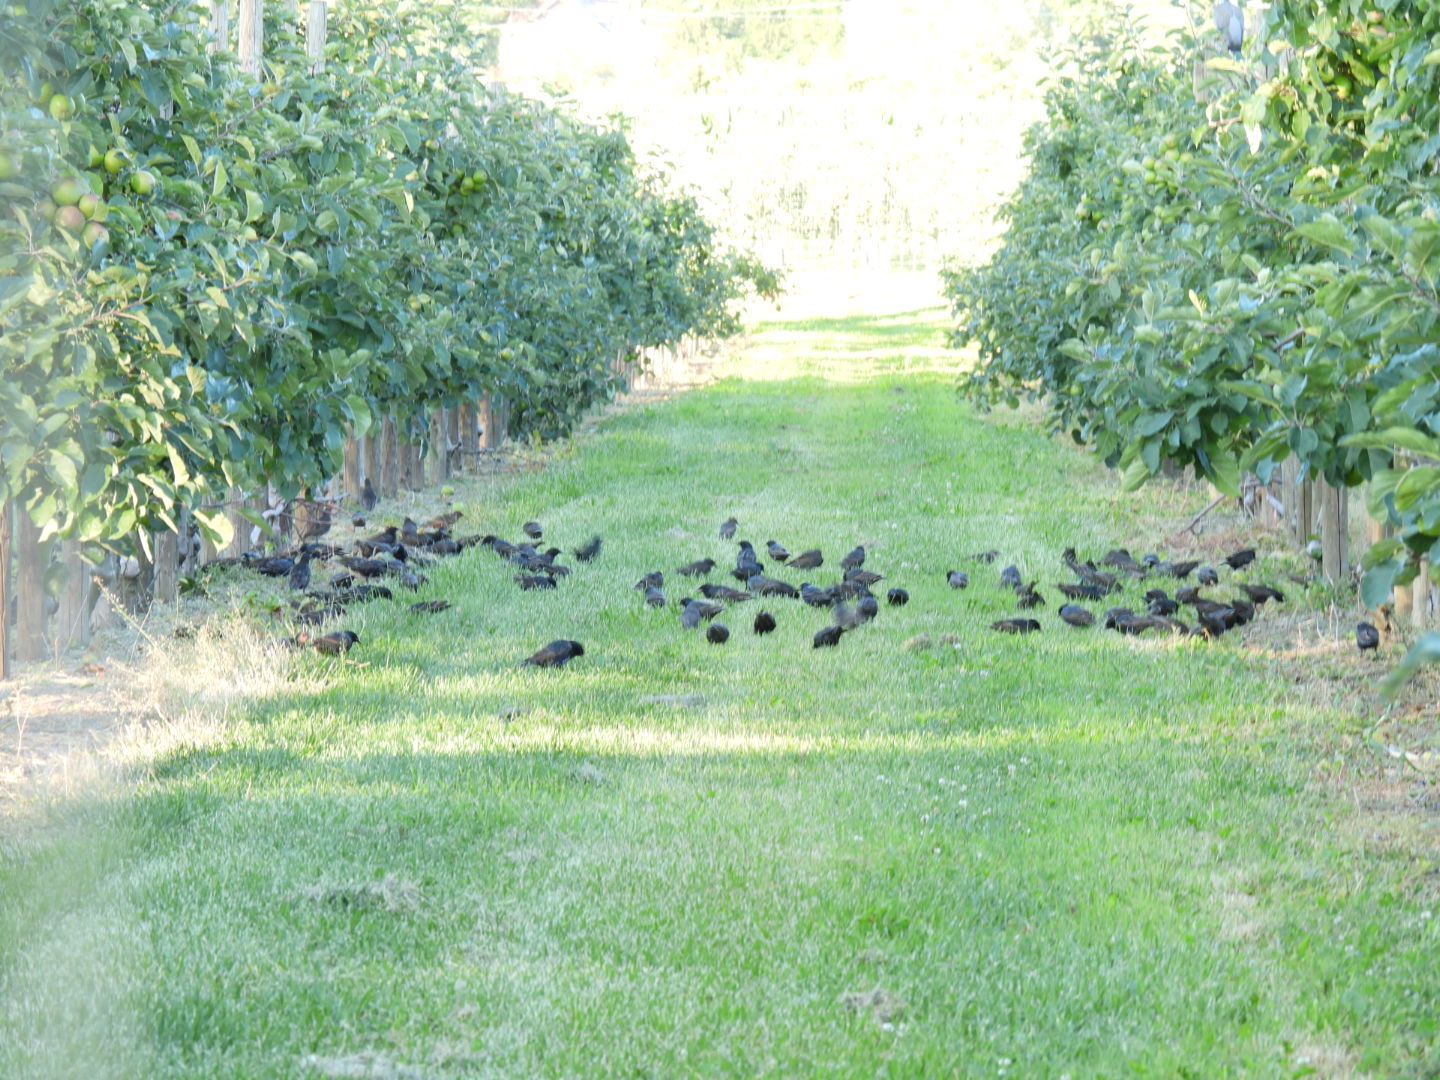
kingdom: Animalia
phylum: Chordata
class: Aves
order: Passeriformes
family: Sturnidae
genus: Sturnus
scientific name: Sturnus vulgaris
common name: Common starling
